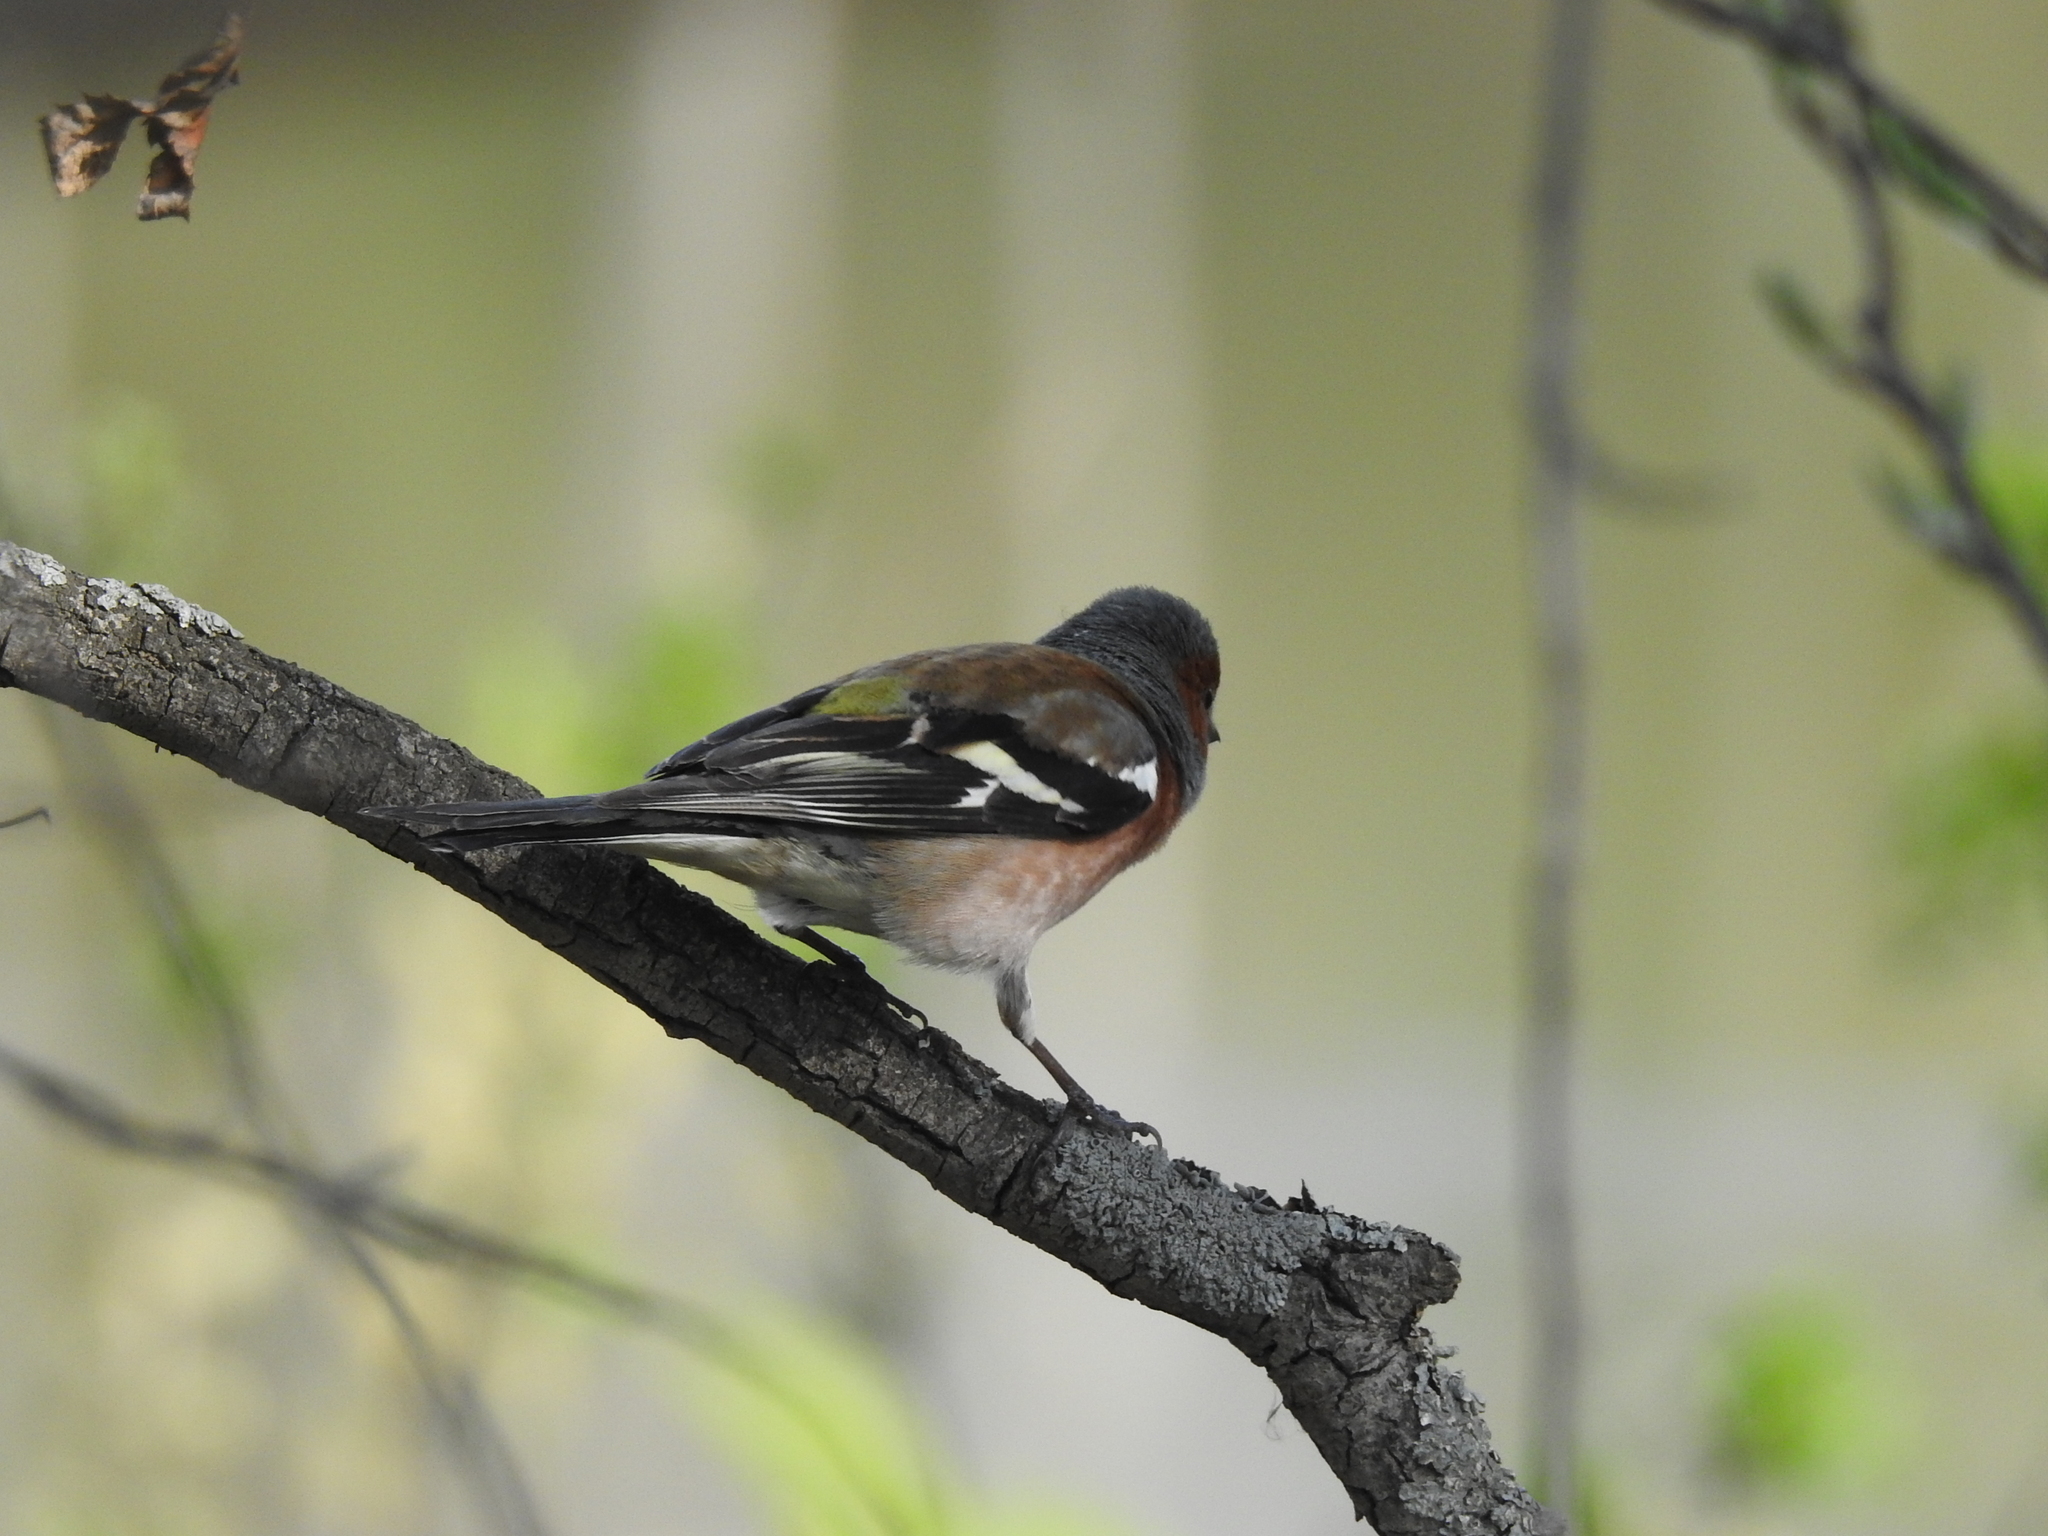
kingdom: Animalia
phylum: Chordata
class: Aves
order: Passeriformes
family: Fringillidae
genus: Fringilla
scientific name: Fringilla coelebs
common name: Common chaffinch
